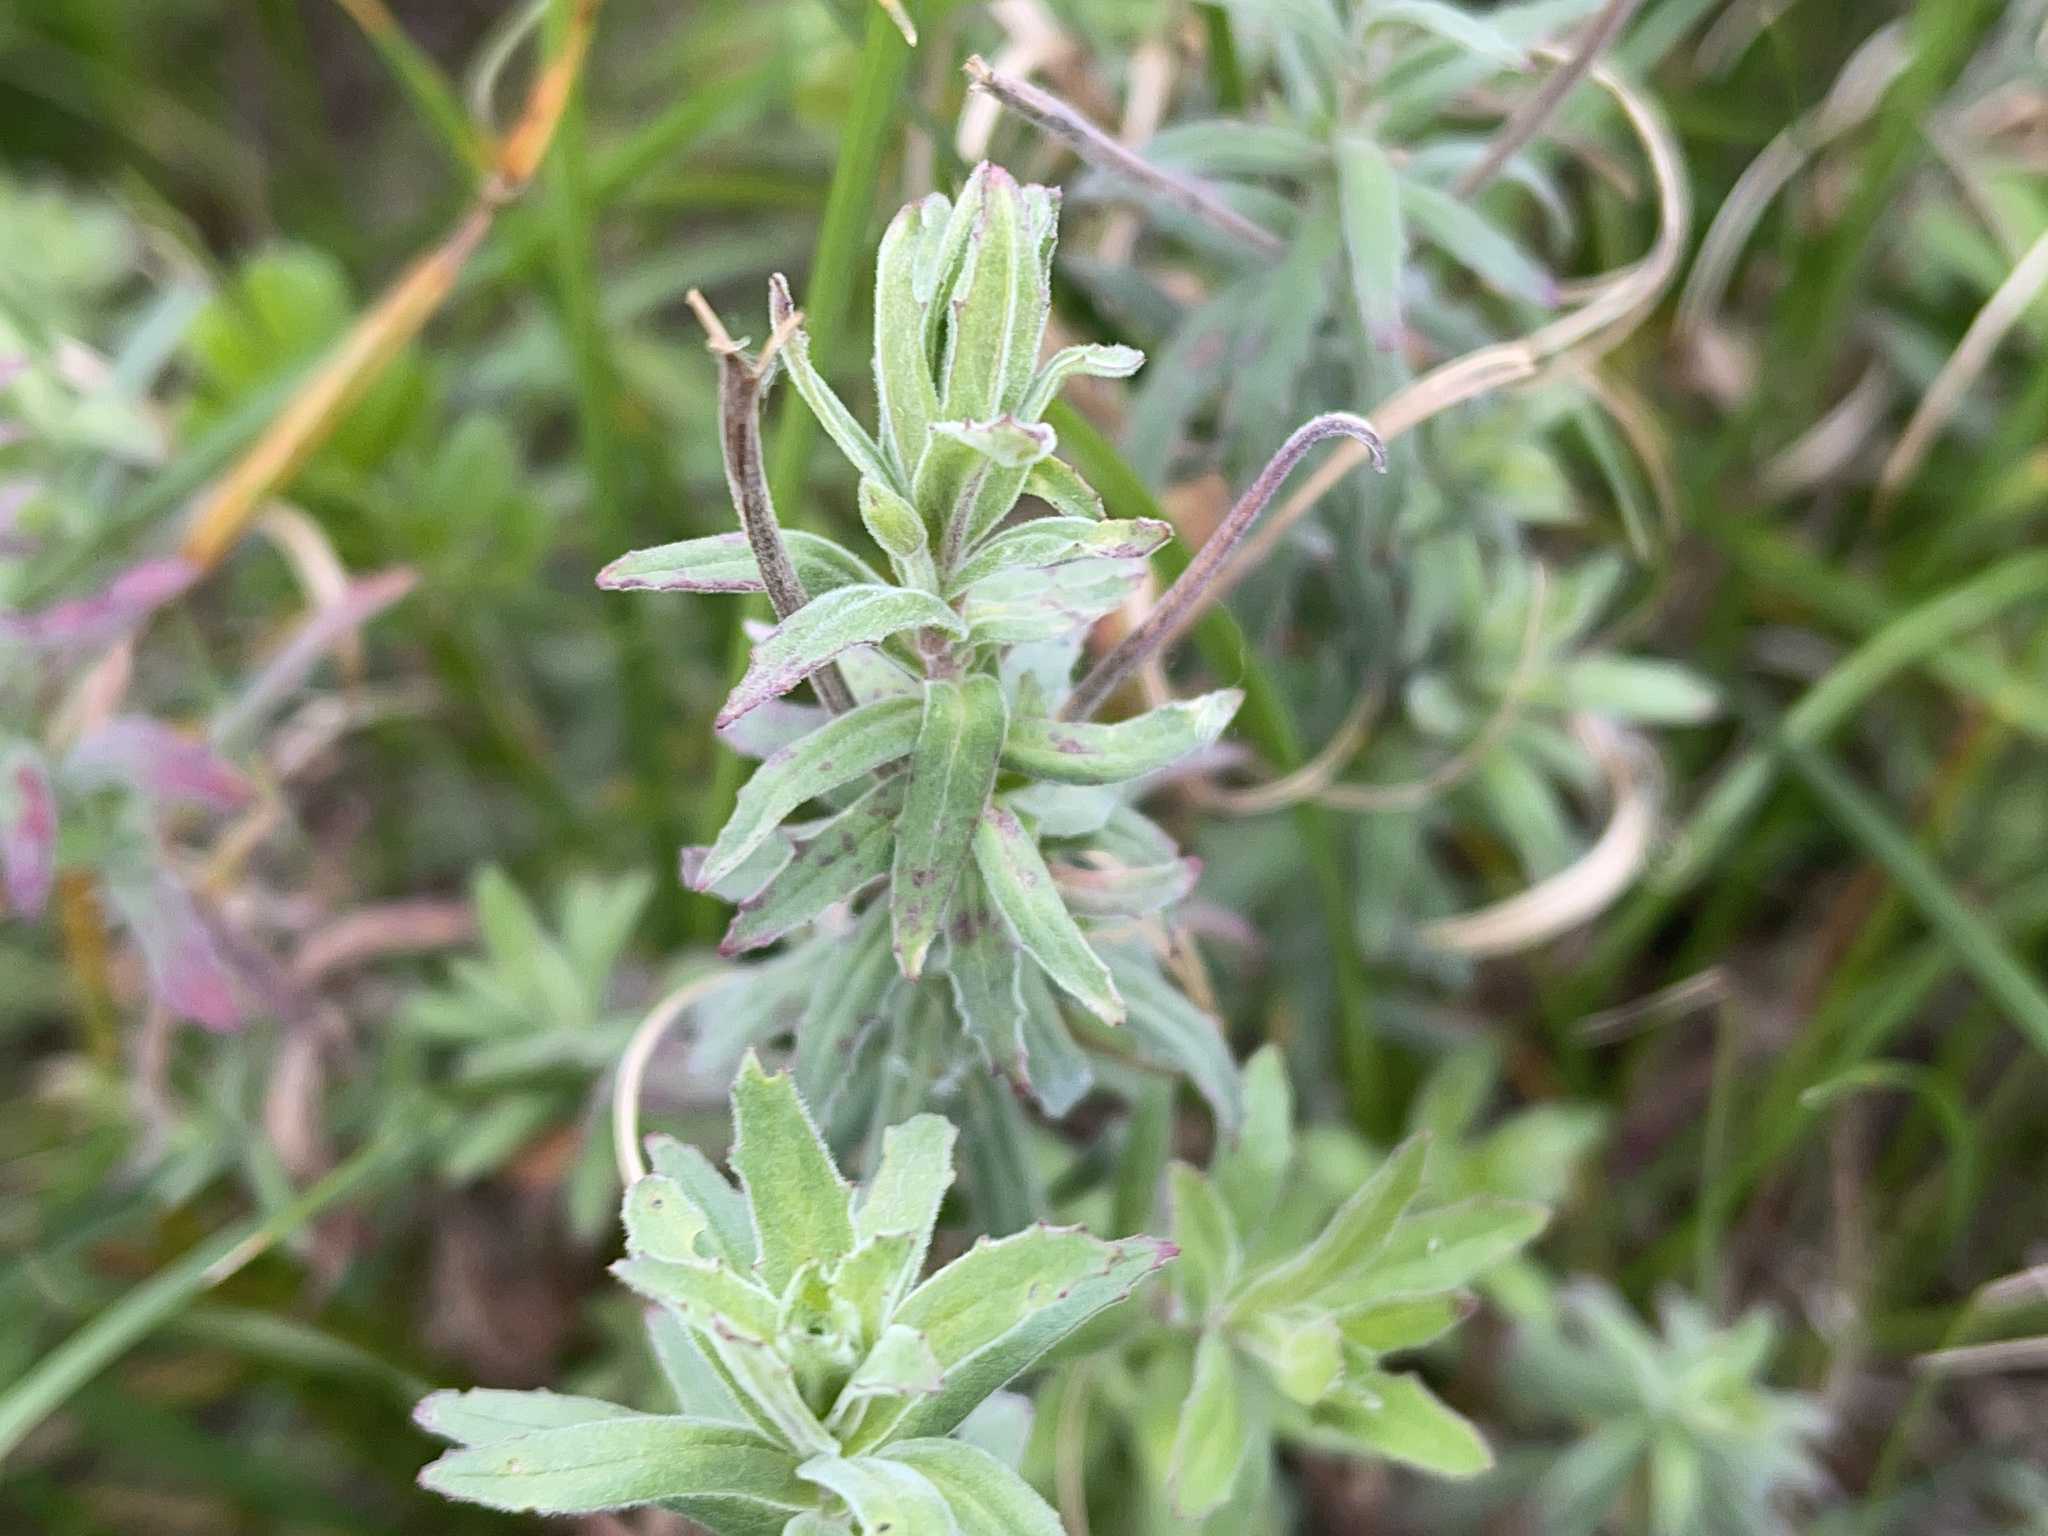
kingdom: Plantae
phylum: Tracheophyta
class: Magnoliopsida
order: Myrtales
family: Onagraceae
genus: Epilobium
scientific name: Epilobium hirtigerum
